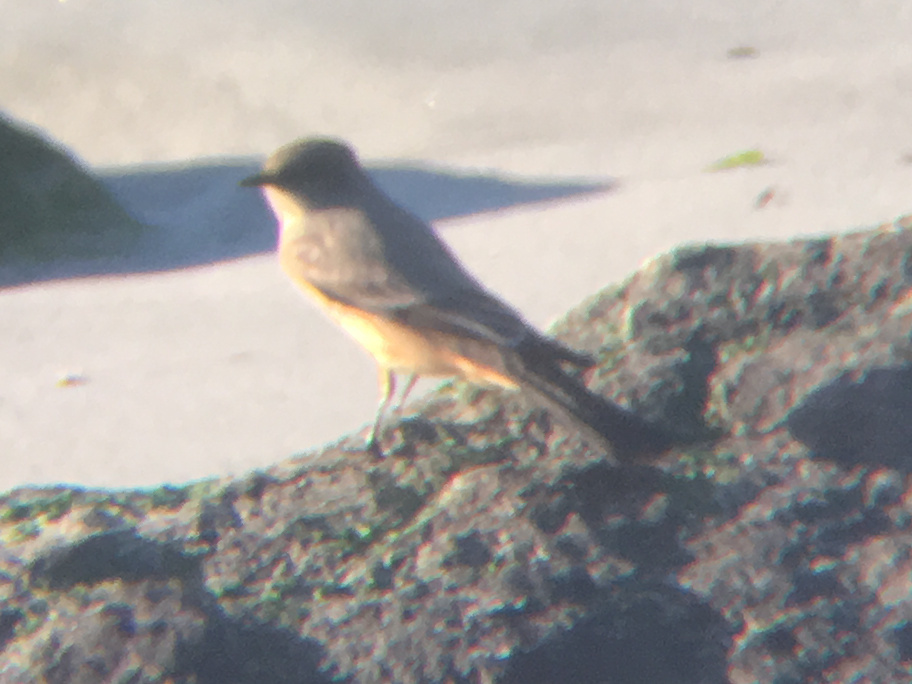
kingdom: Animalia
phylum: Chordata
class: Aves
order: Passeriformes
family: Tyrannidae
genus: Sayornis
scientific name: Sayornis saya
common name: Say's phoebe
